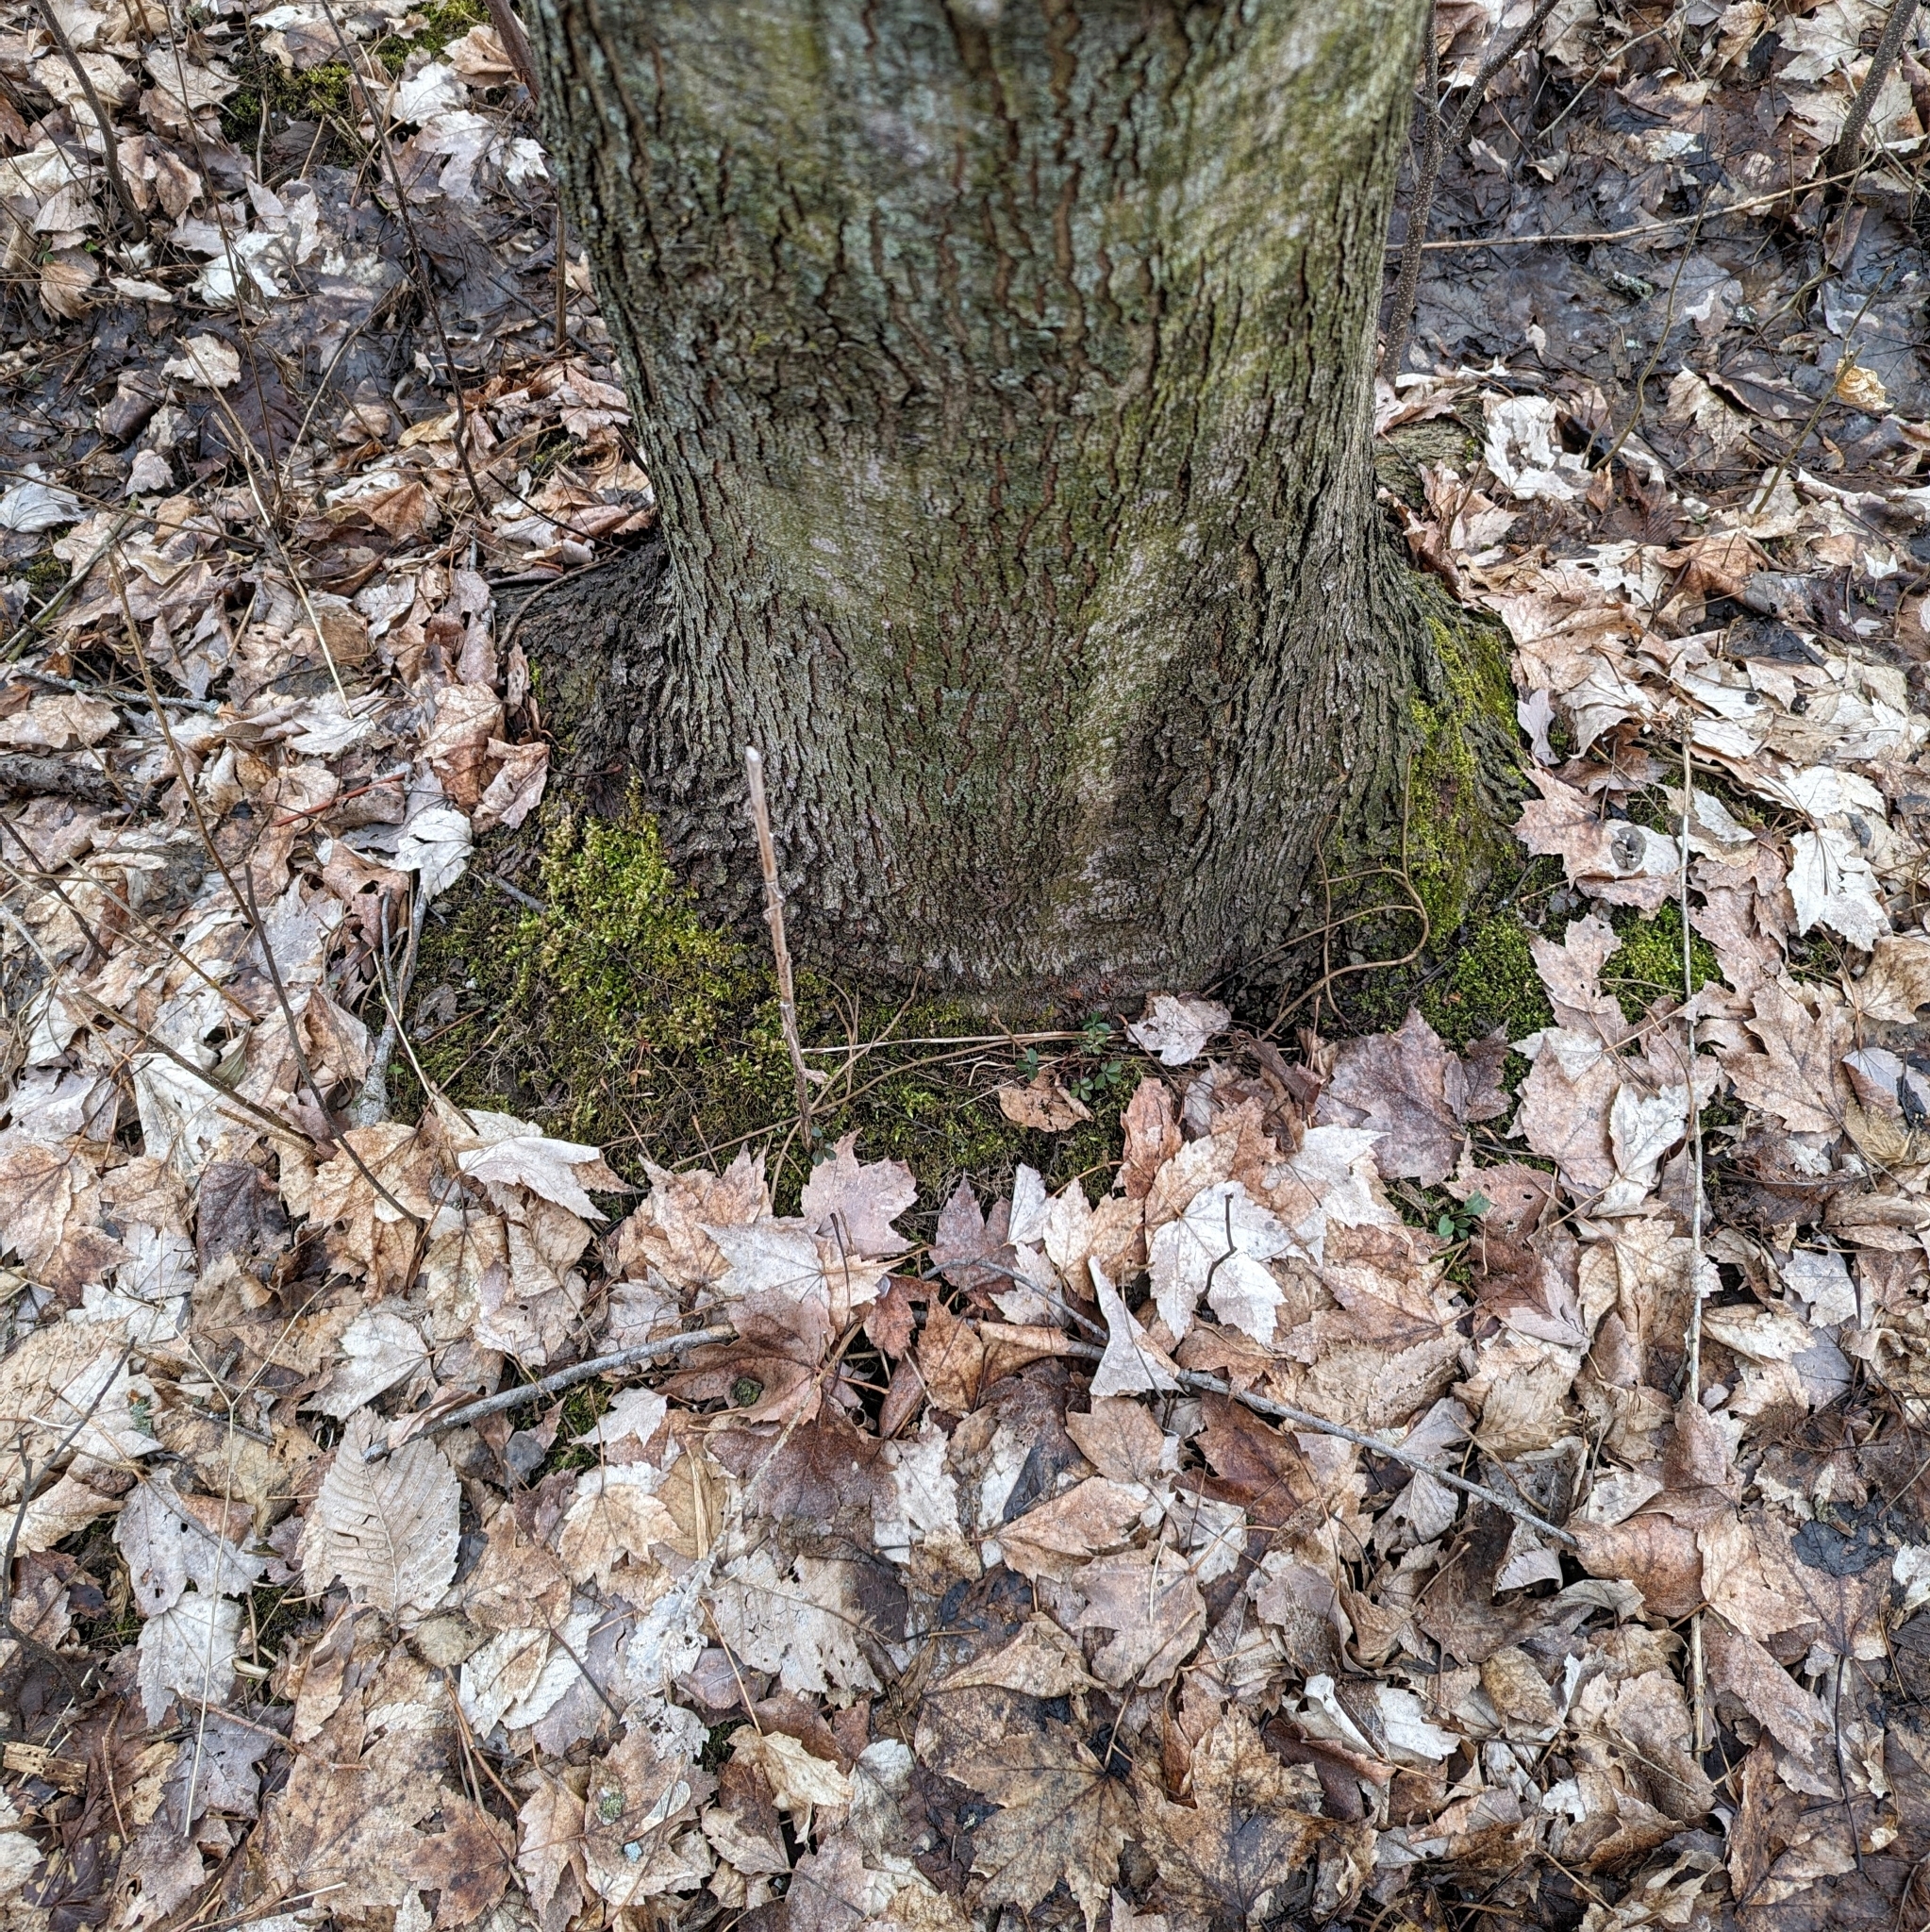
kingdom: Plantae
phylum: Tracheophyta
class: Magnoliopsida
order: Sapindales
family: Sapindaceae
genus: Acer
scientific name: Acer rubrum
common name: Red maple
